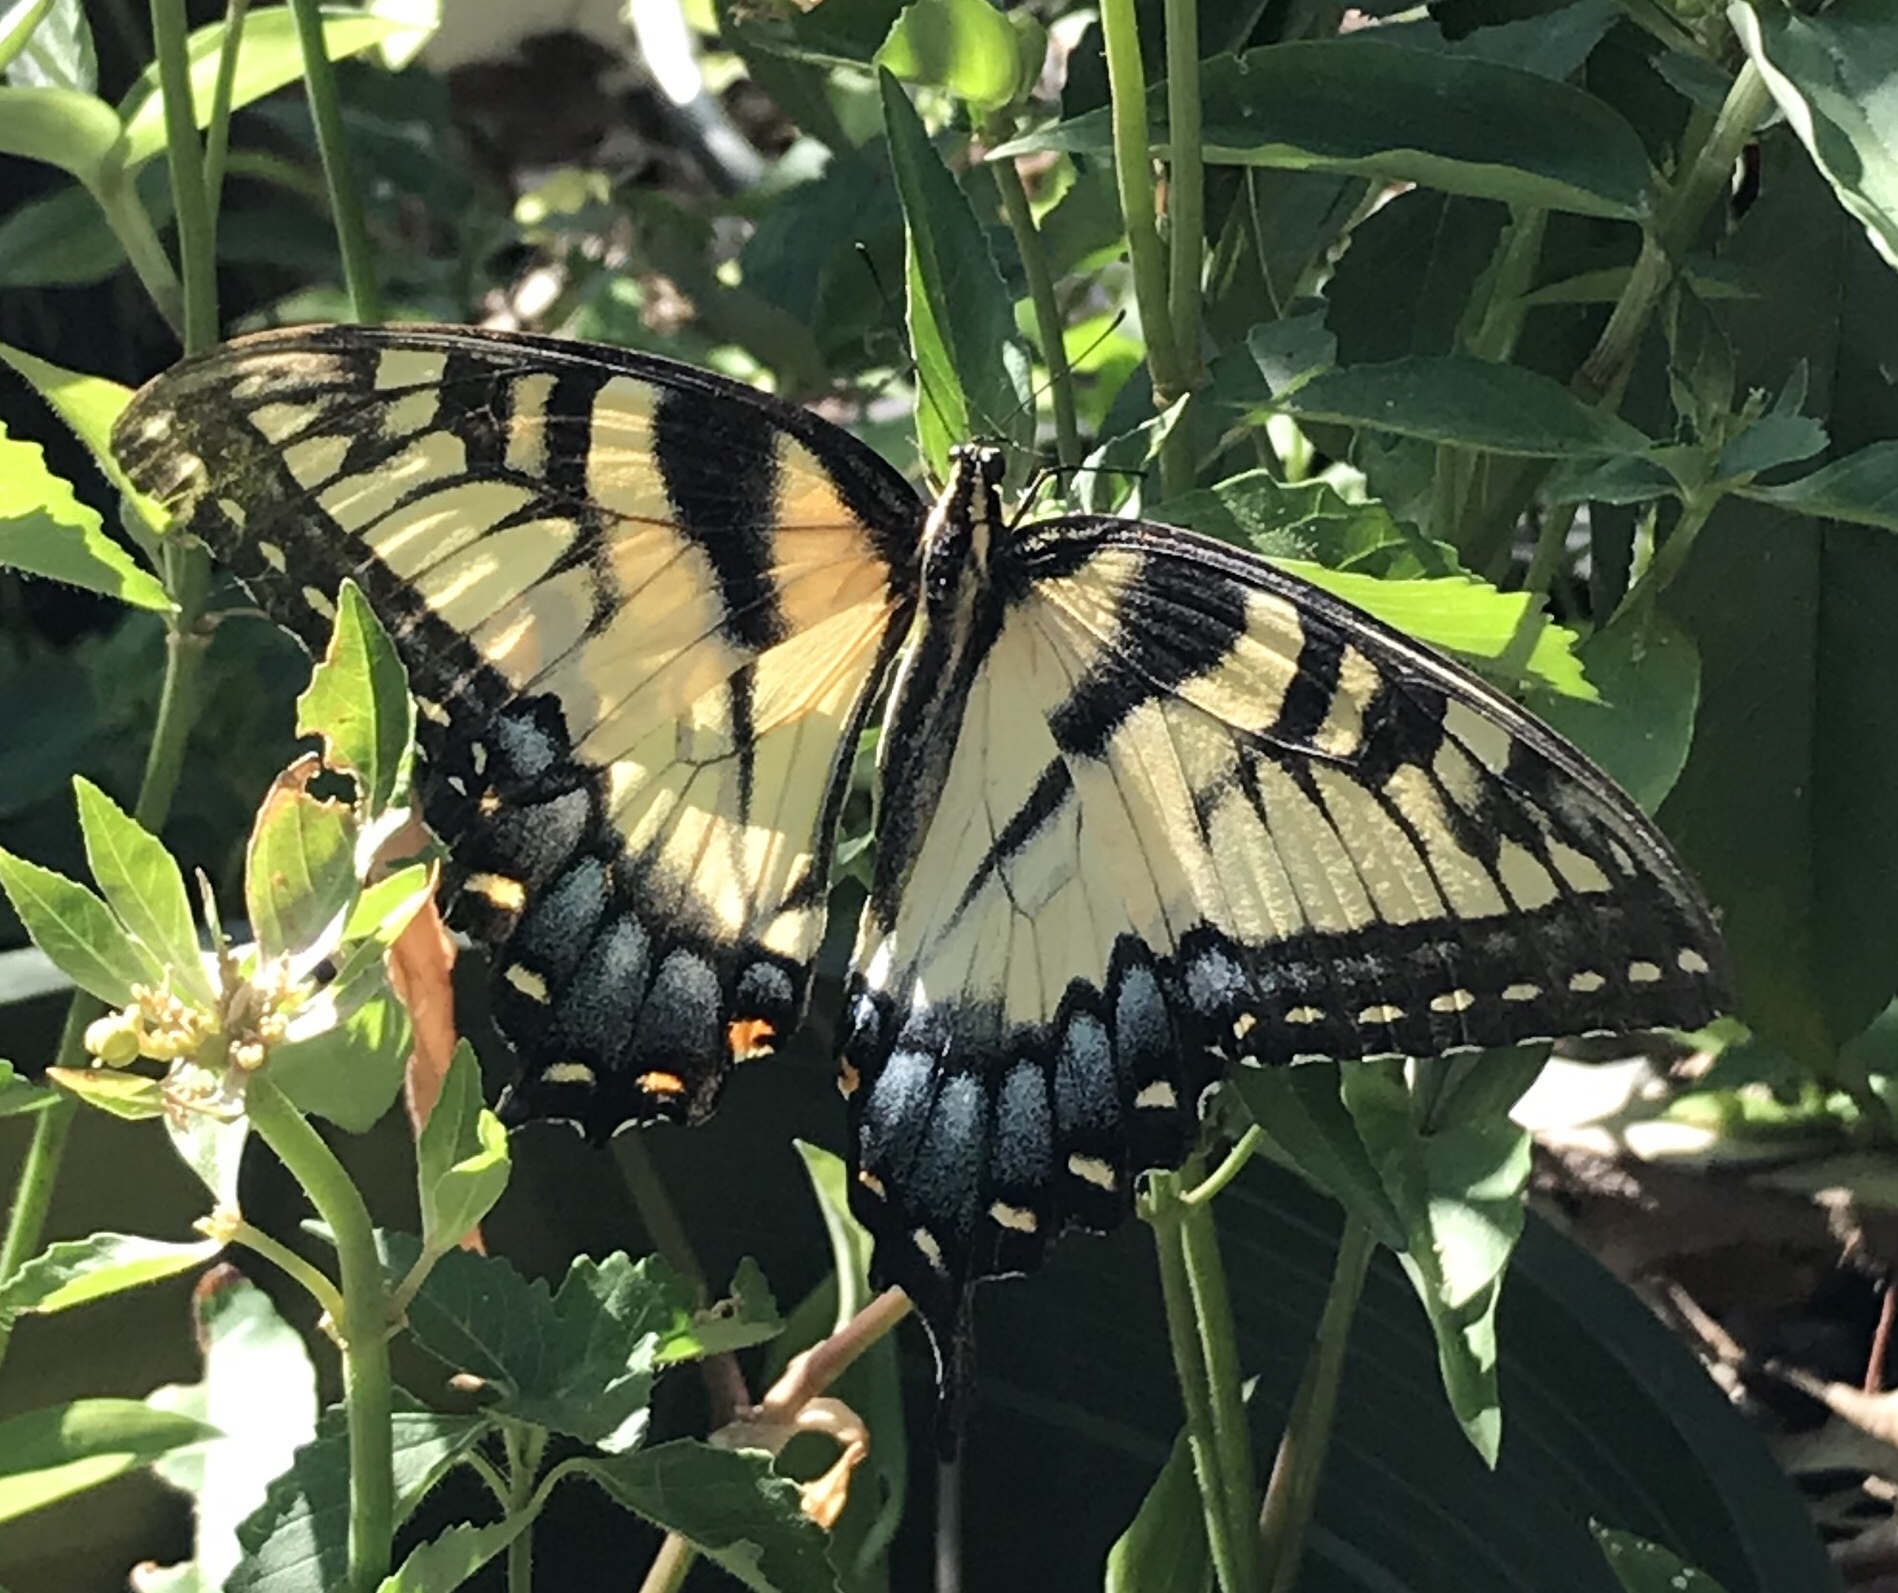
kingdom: Animalia
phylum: Arthropoda
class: Insecta
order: Lepidoptera
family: Papilionidae
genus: Papilio
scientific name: Papilio glaucus
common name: Tiger swallowtail
